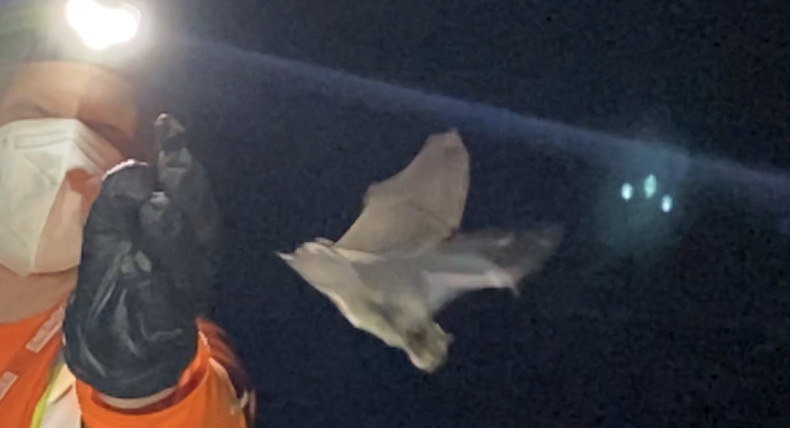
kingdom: Animalia
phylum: Chordata
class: Mammalia
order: Chiroptera
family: Vespertilionidae
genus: Eptesicus
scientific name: Eptesicus fuscus
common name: Big brown bat
